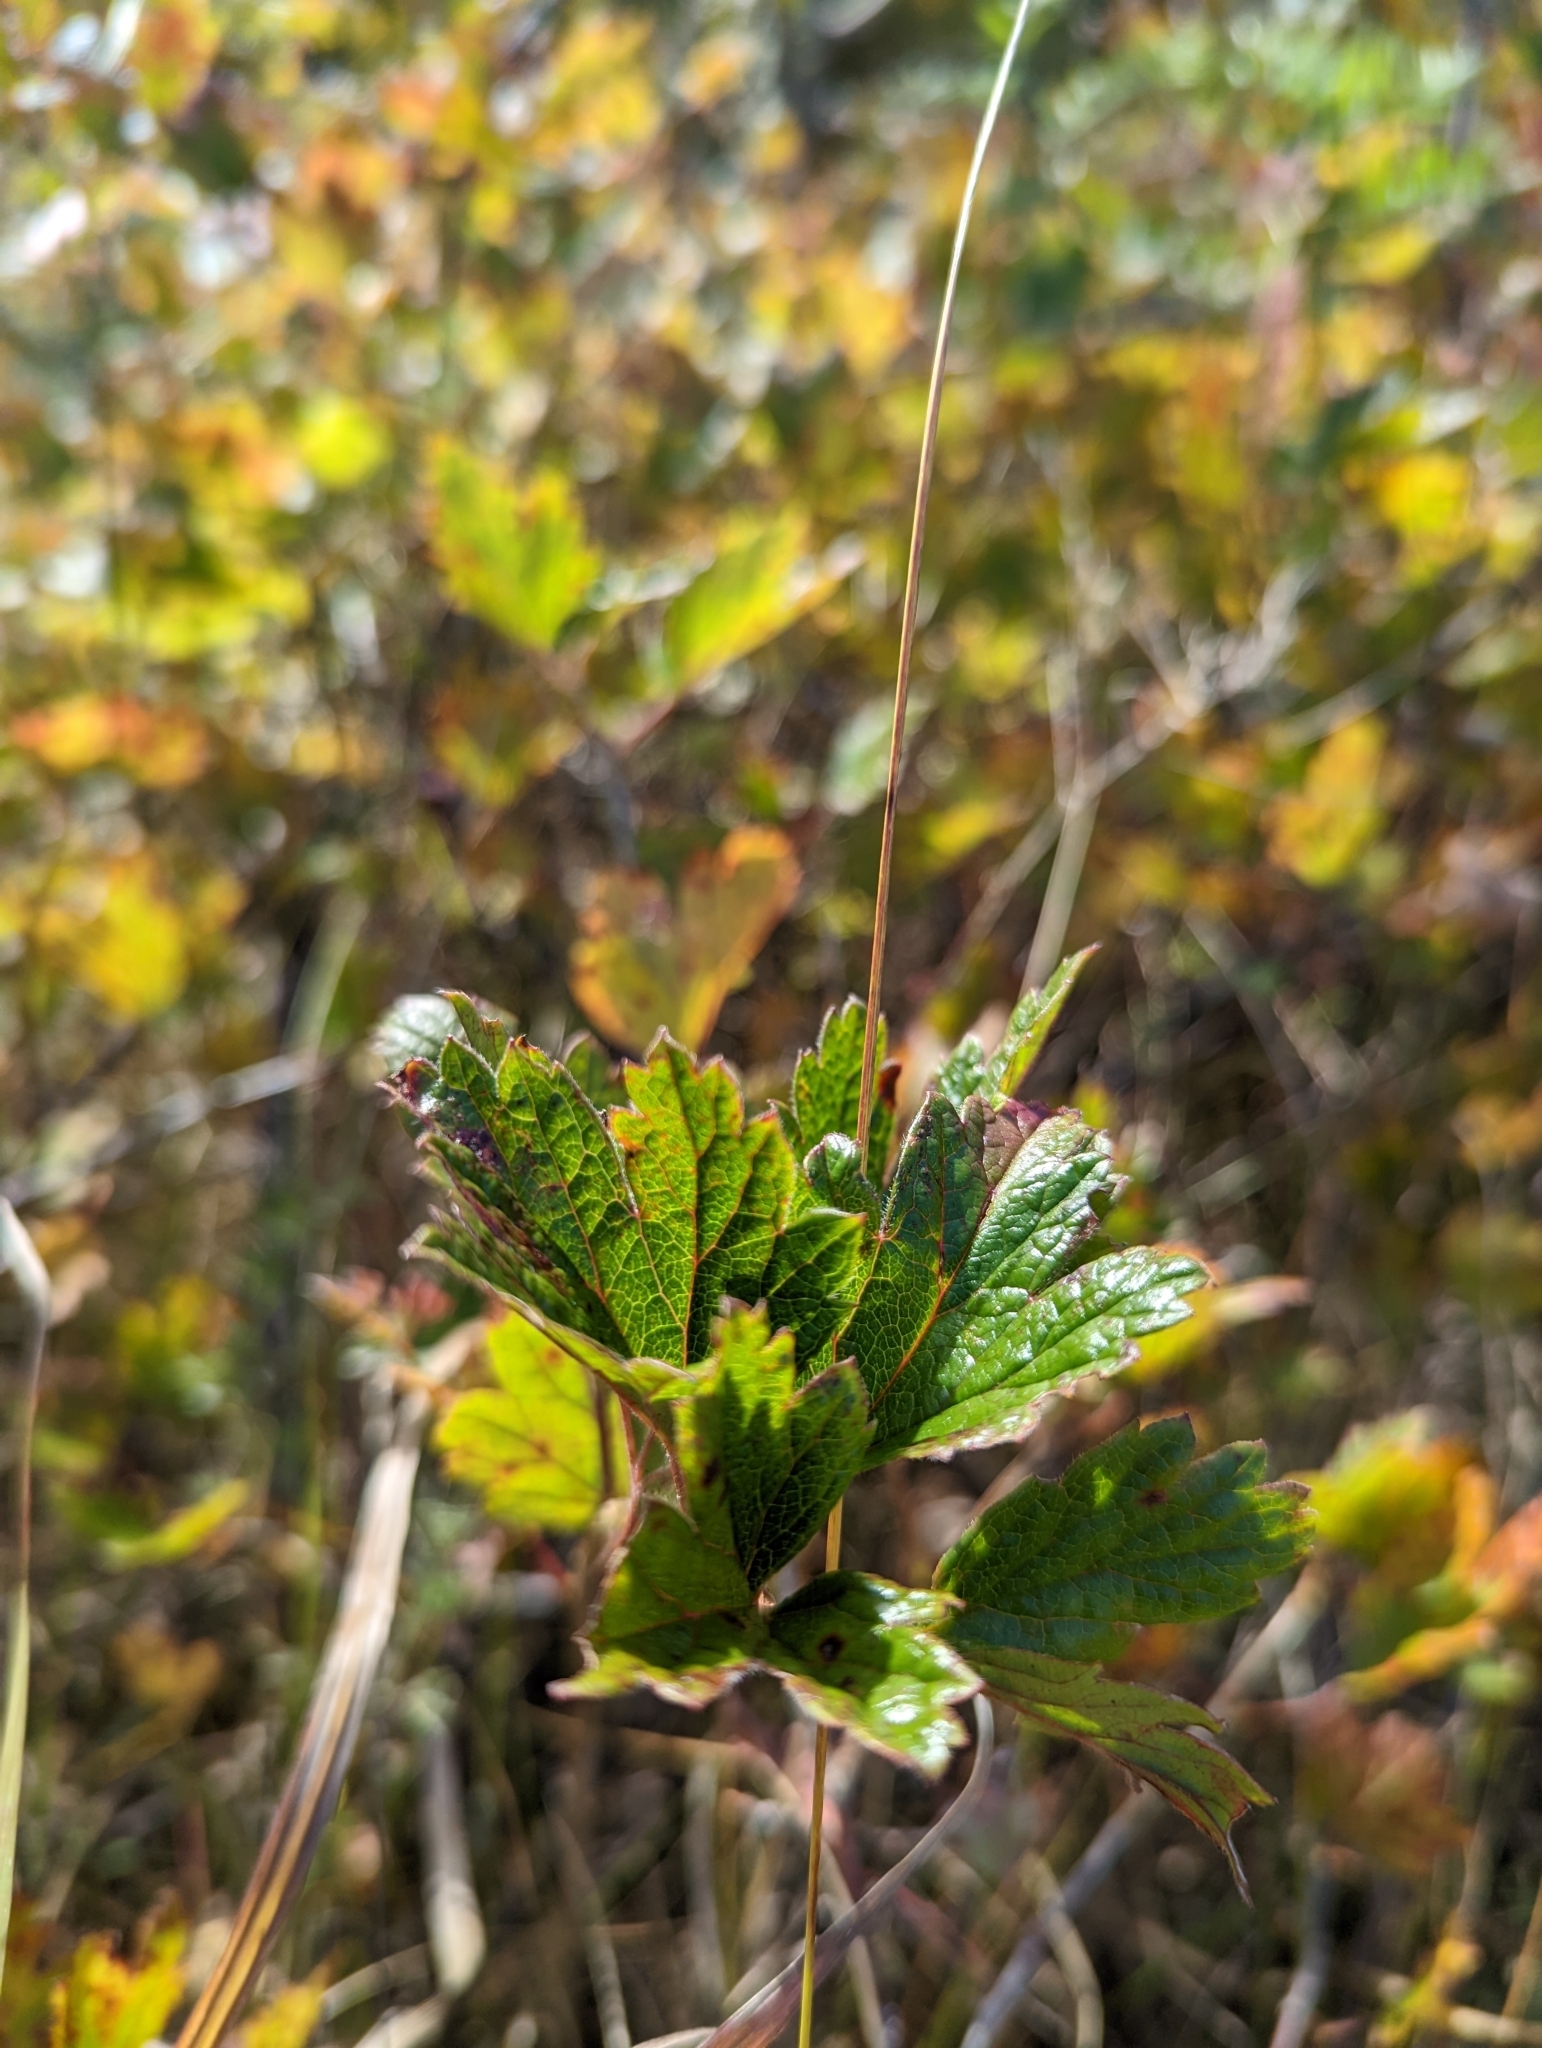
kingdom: Plantae
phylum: Tracheophyta
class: Magnoliopsida
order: Saxifragales
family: Grossulariaceae
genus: Ribes
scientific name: Ribes hirtellum
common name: Hairy gooseberry
